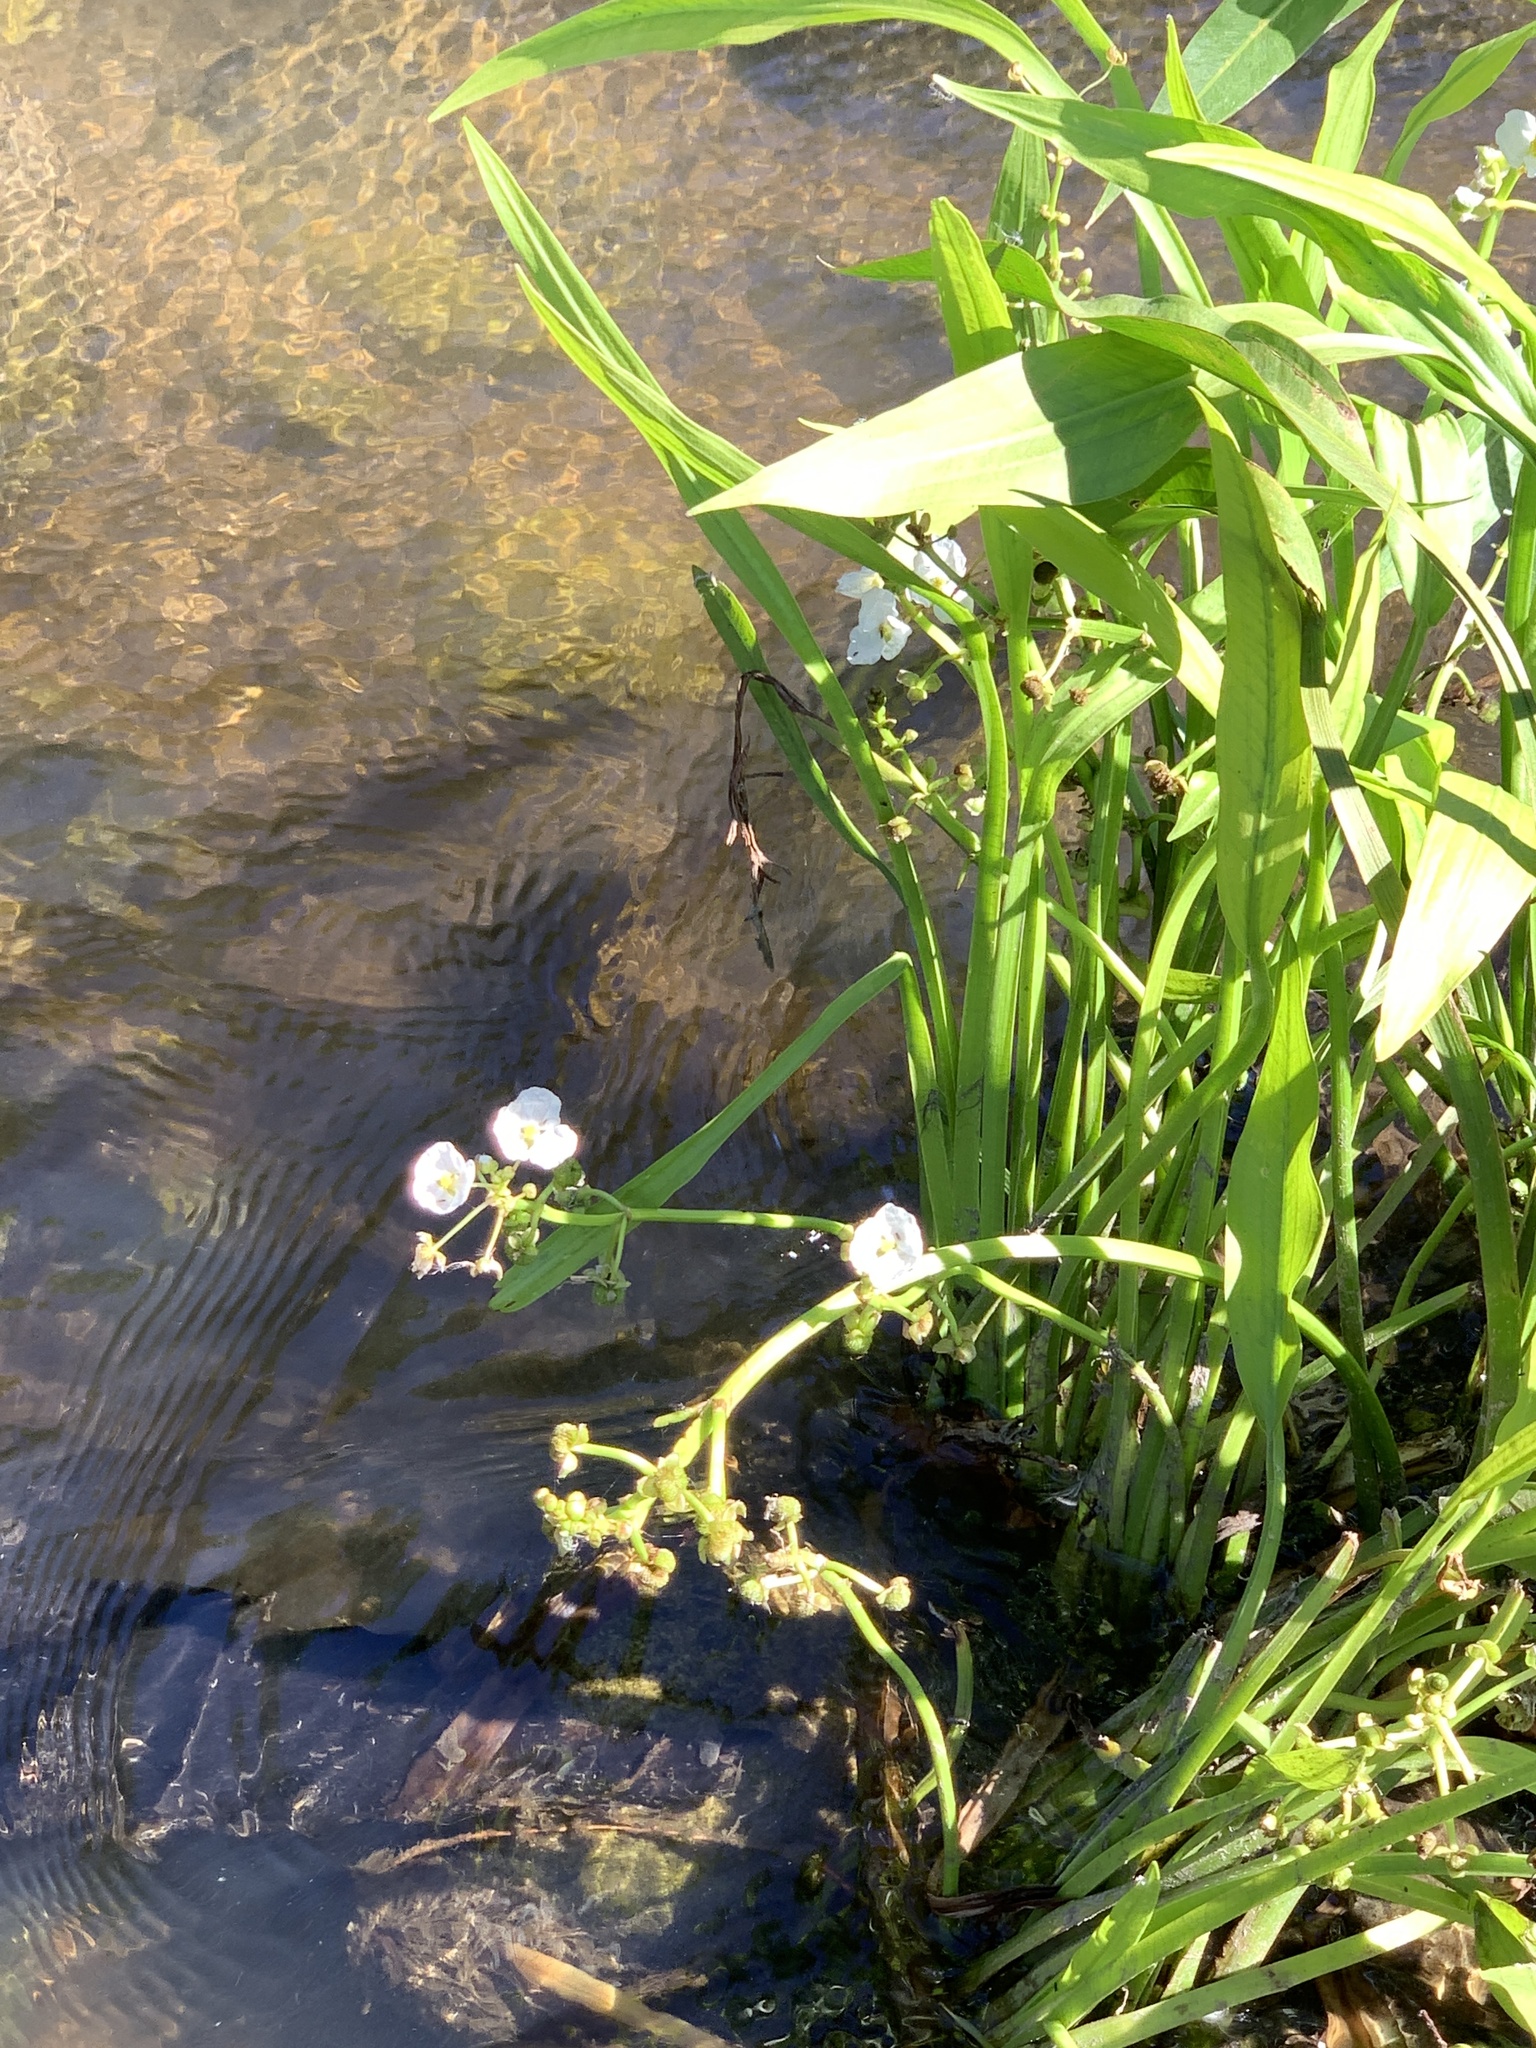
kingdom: Plantae
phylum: Tracheophyta
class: Liliopsida
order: Alismatales
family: Alismataceae
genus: Sagittaria
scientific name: Sagittaria platyphylla
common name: Broad-leaf arrowhead
